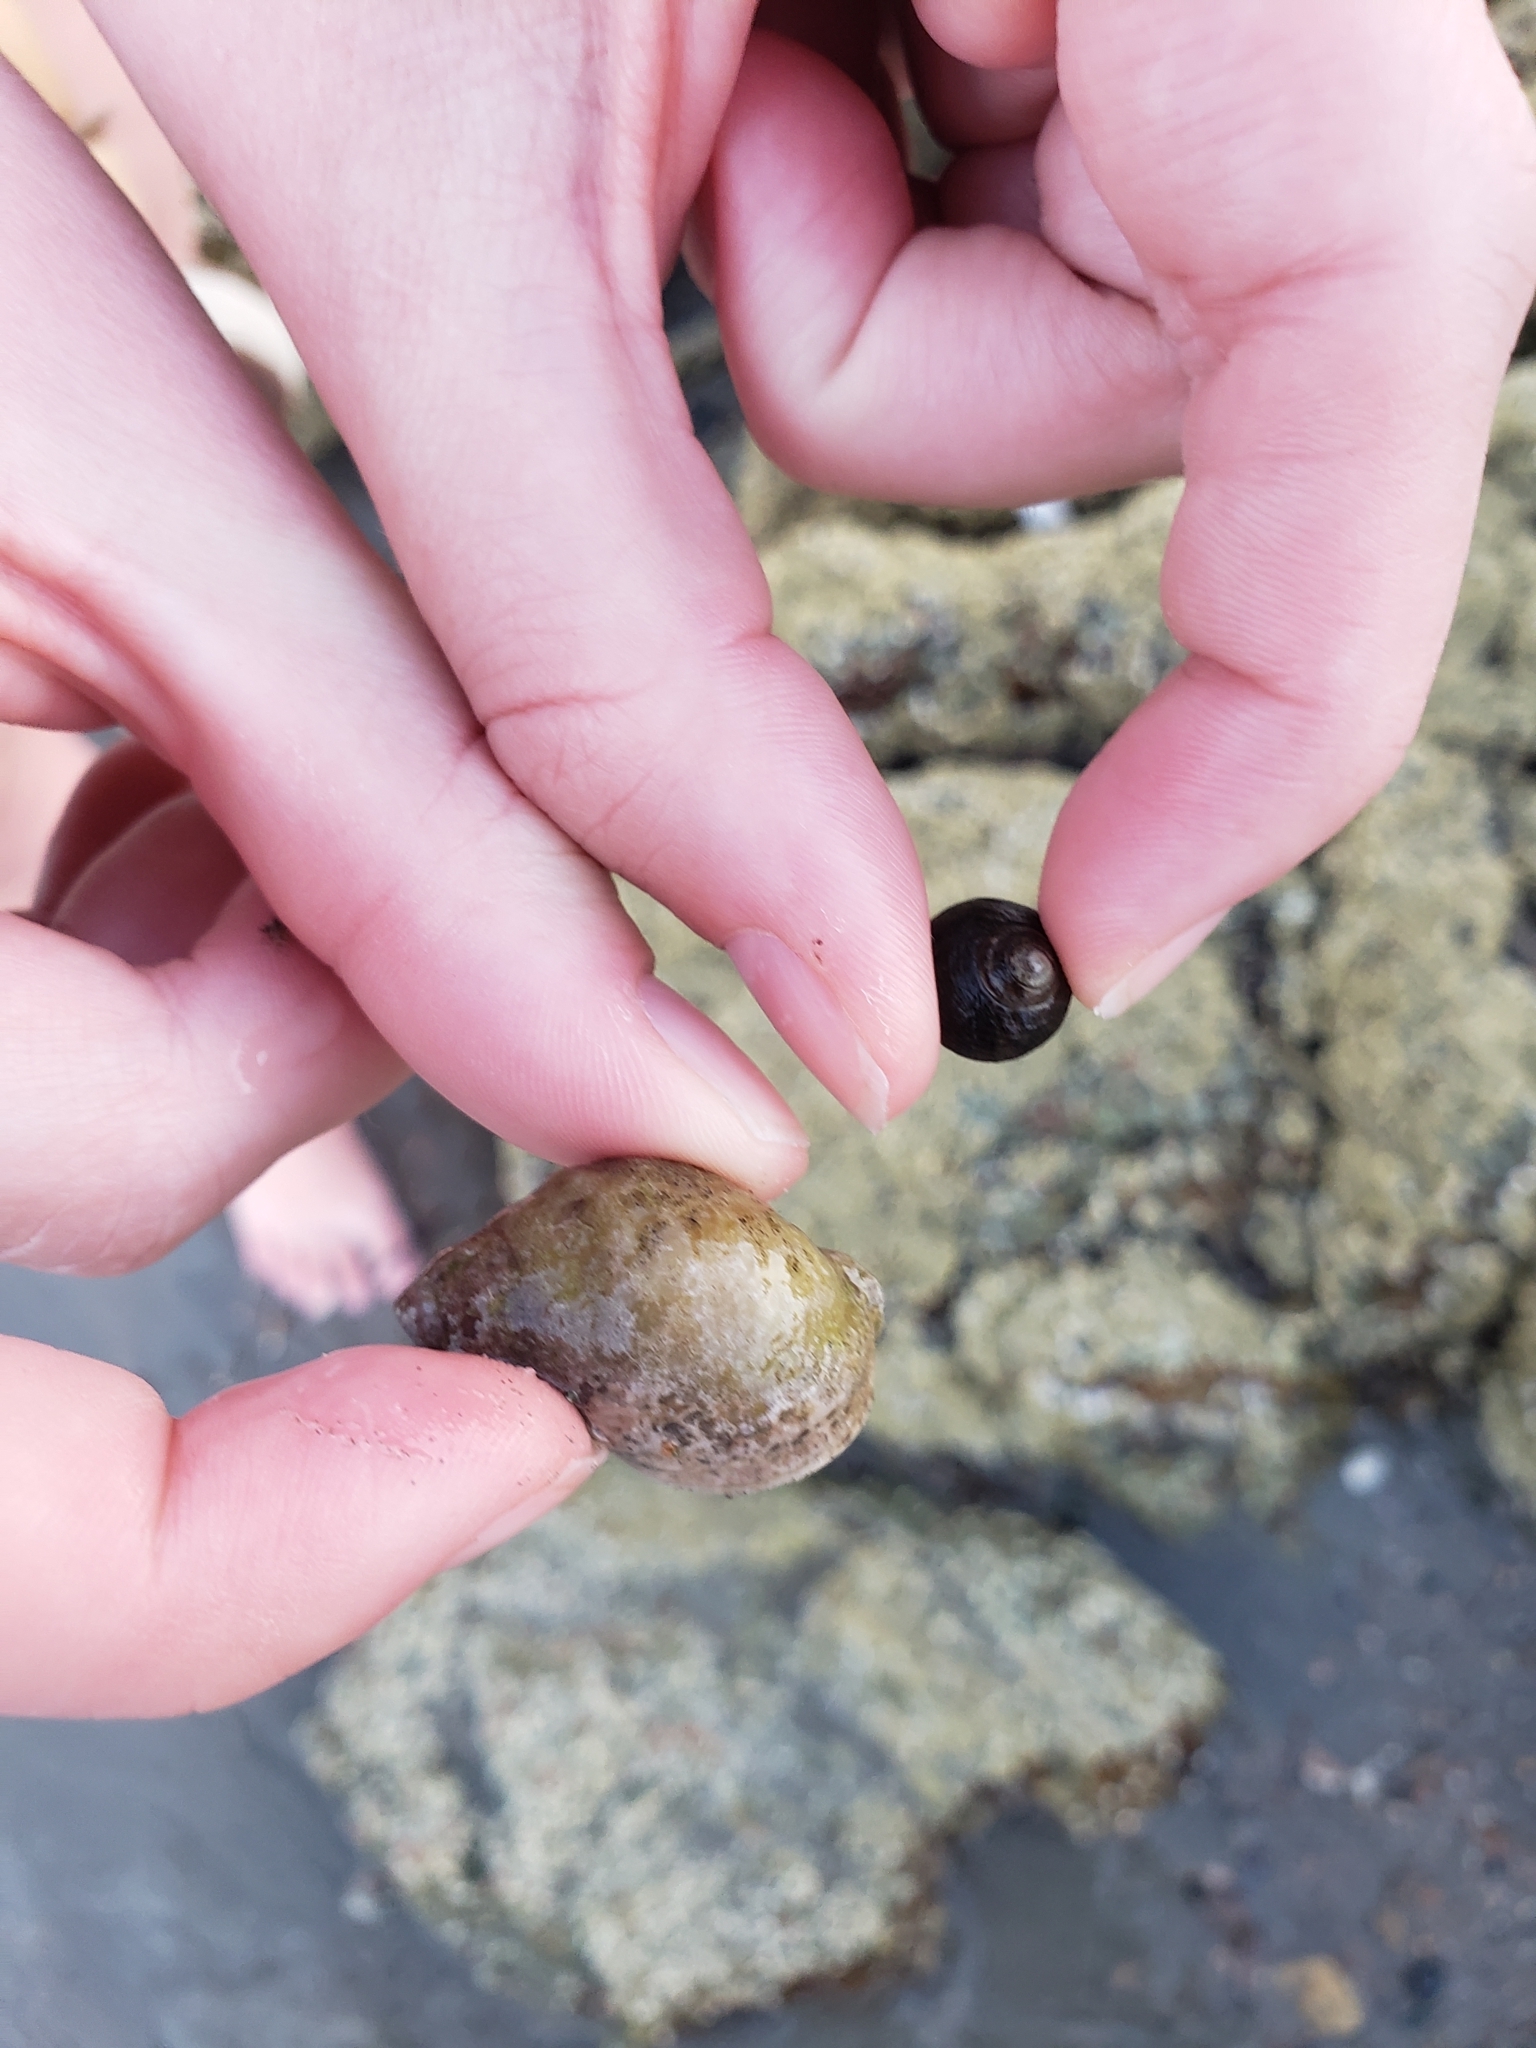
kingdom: Animalia
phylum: Mollusca
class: Gastropoda
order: Neogastropoda
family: Muricidae
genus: Nucella
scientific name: Nucella lapillus
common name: Dog whelk
